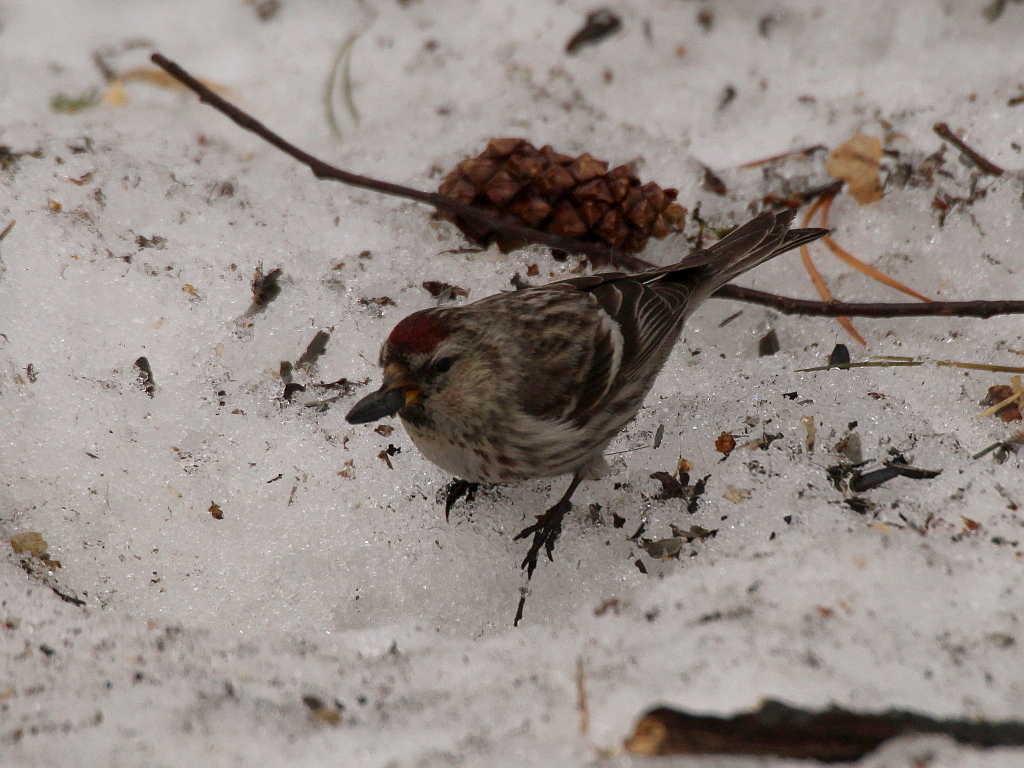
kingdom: Animalia
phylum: Chordata
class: Aves
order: Passeriformes
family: Fringillidae
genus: Acanthis
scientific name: Acanthis flammea
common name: Common redpoll
